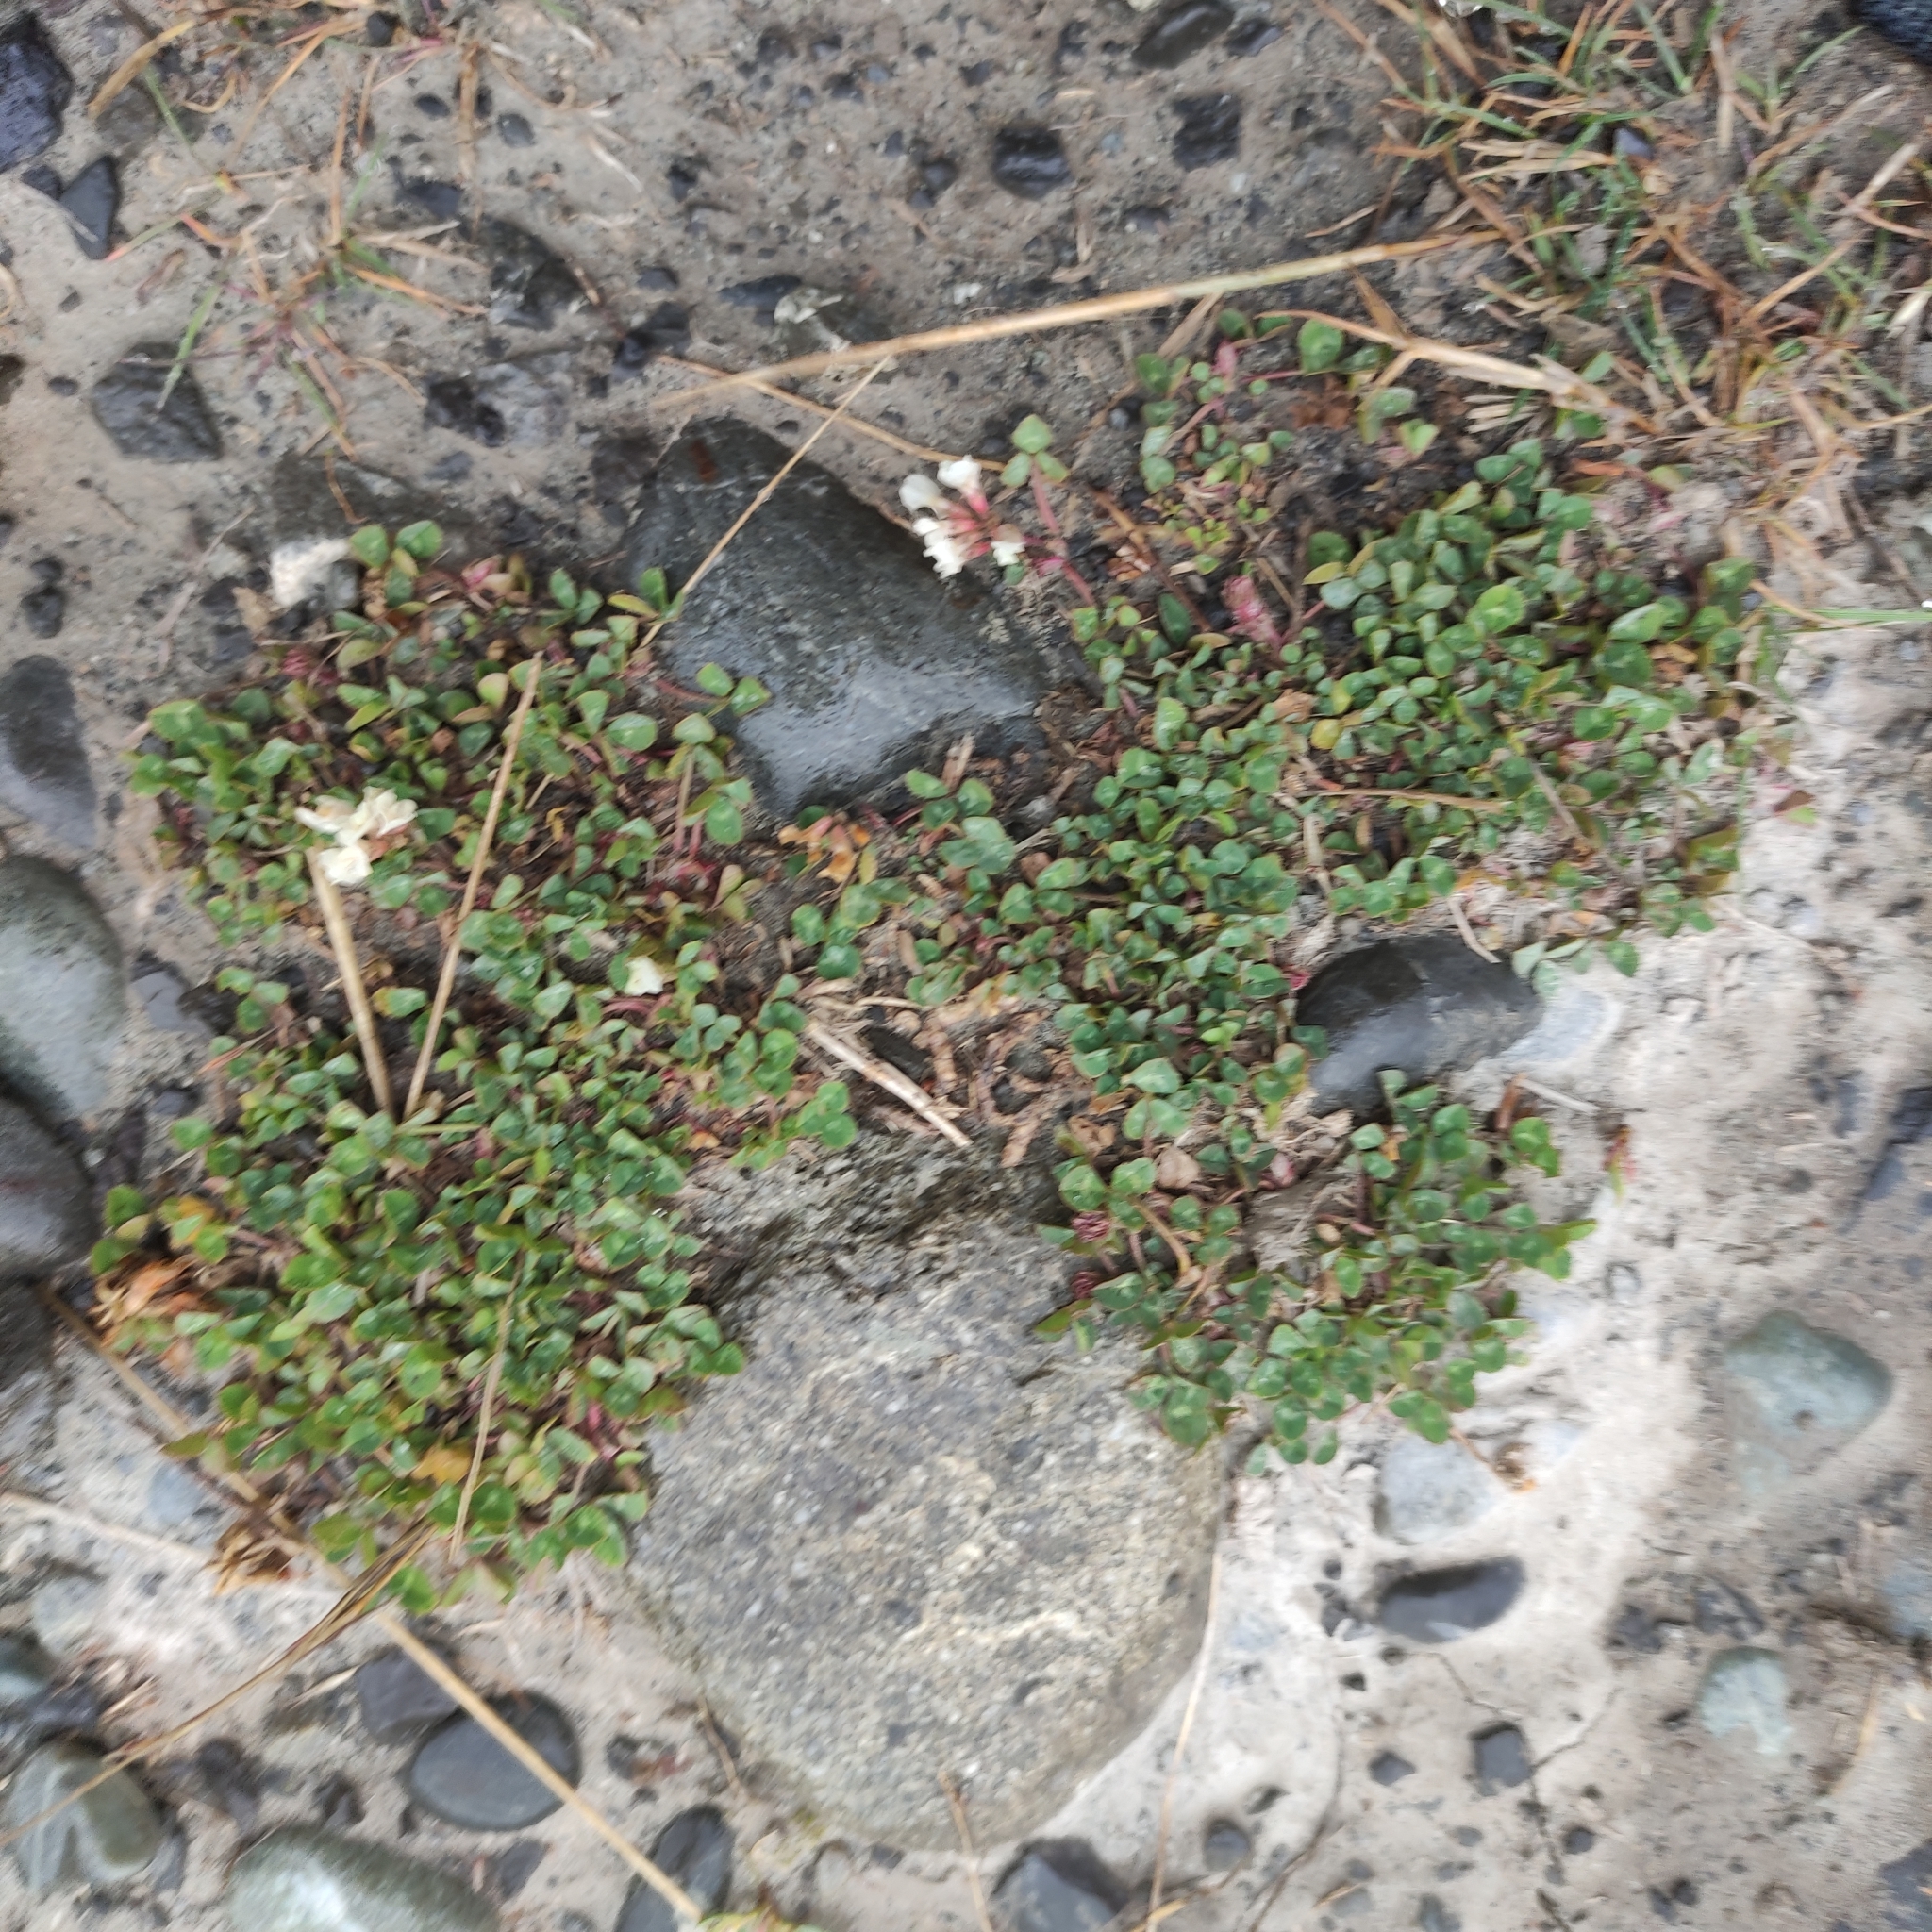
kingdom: Plantae
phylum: Tracheophyta
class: Magnoliopsida
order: Fabales
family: Fabaceae
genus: Trifolium
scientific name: Trifolium repens
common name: White clover
